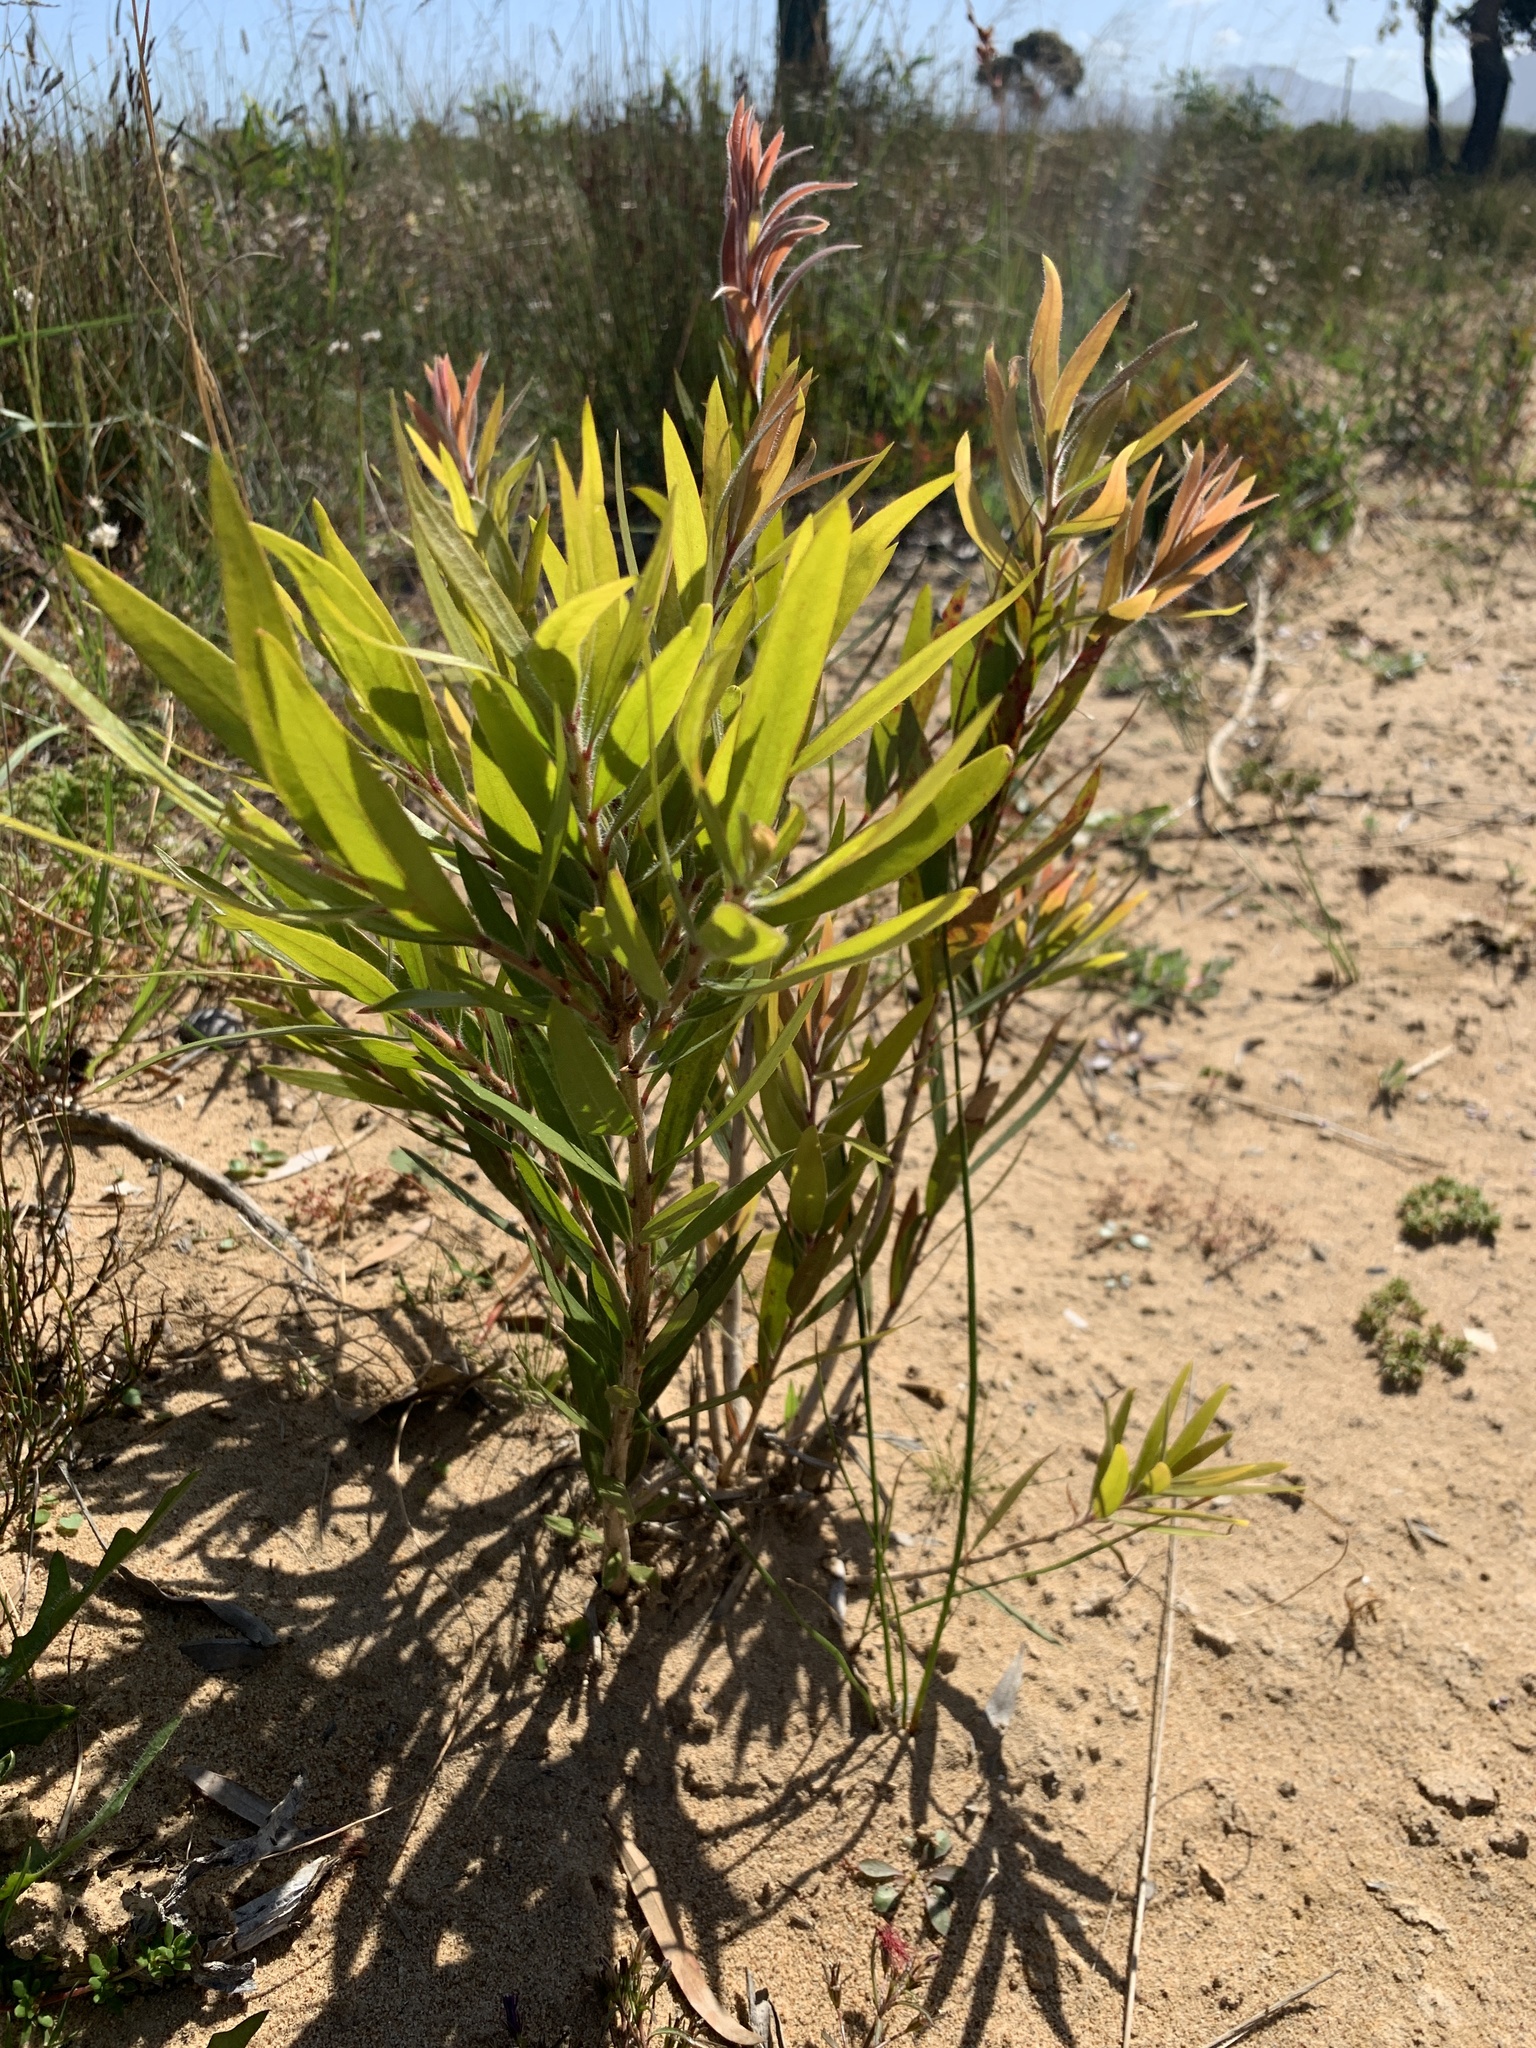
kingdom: Plantae
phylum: Tracheophyta
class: Magnoliopsida
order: Myrtales
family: Myrtaceae
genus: Callistemon
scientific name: Callistemon viminalis
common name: Drooping bottlebrush
